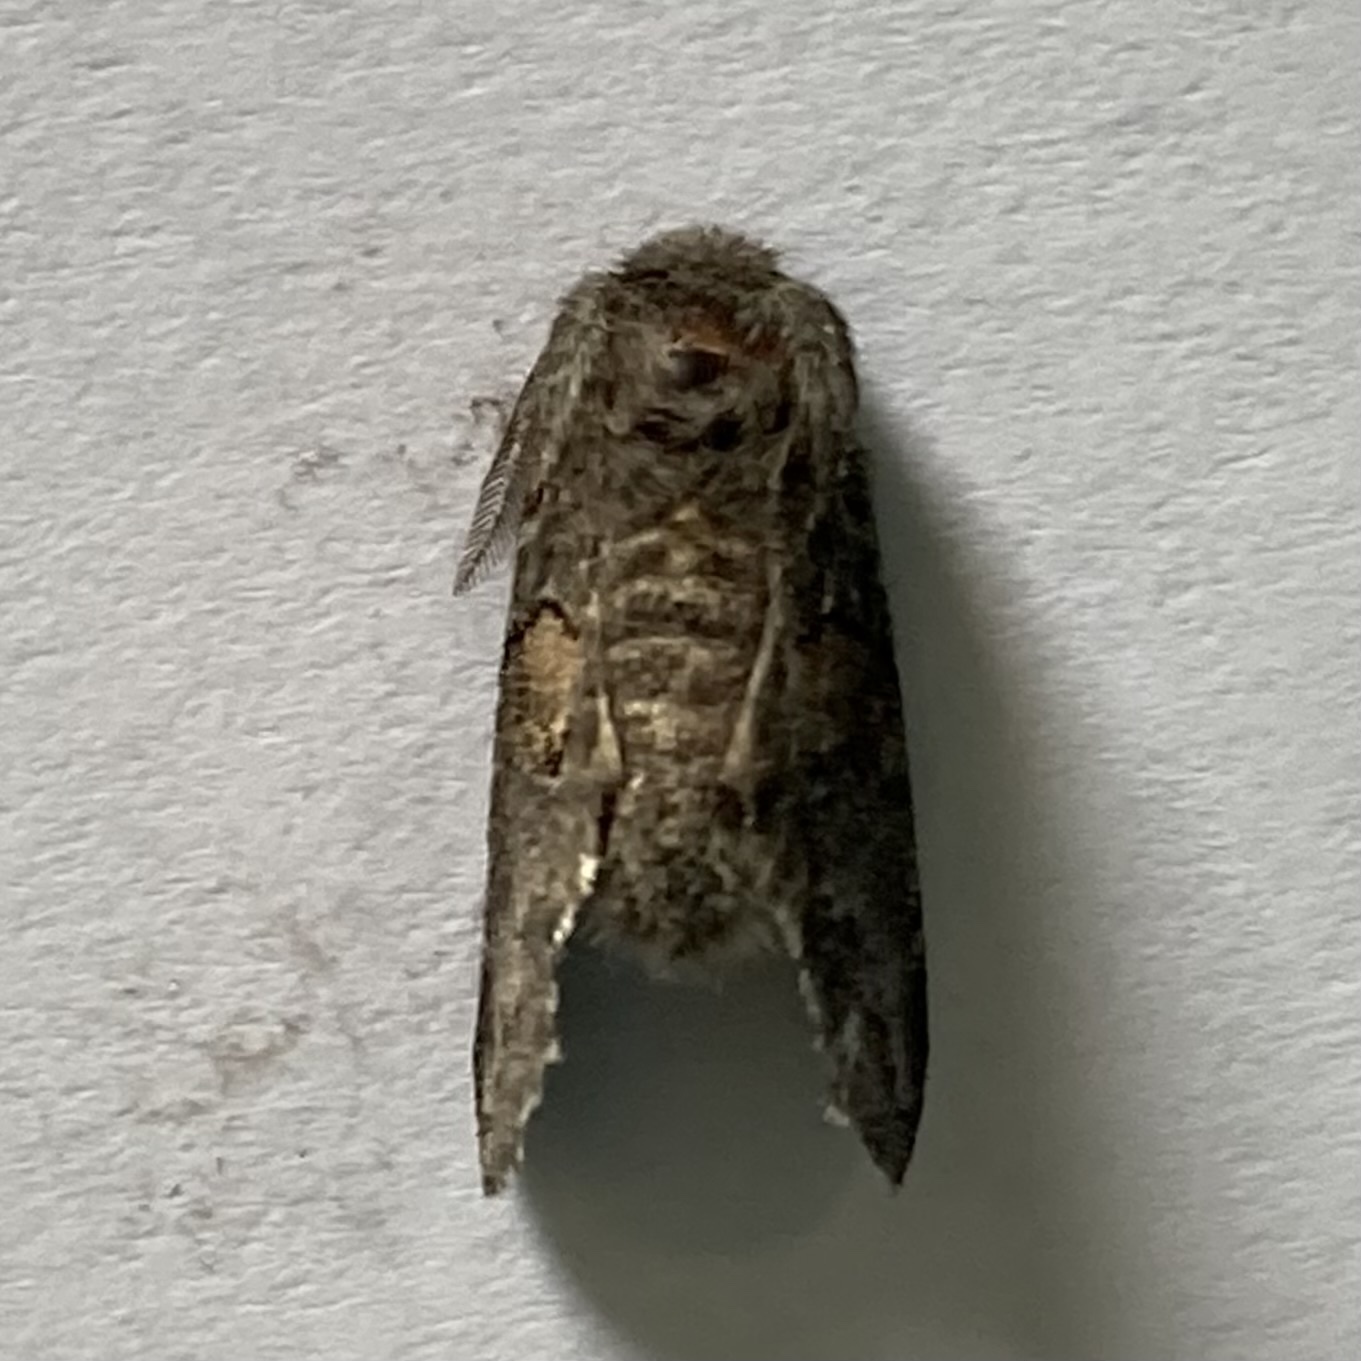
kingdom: Animalia
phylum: Arthropoda
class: Insecta
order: Lepidoptera
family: Notodontidae
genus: Gluphisia
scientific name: Gluphisia septentrionis
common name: Common gluphisia
